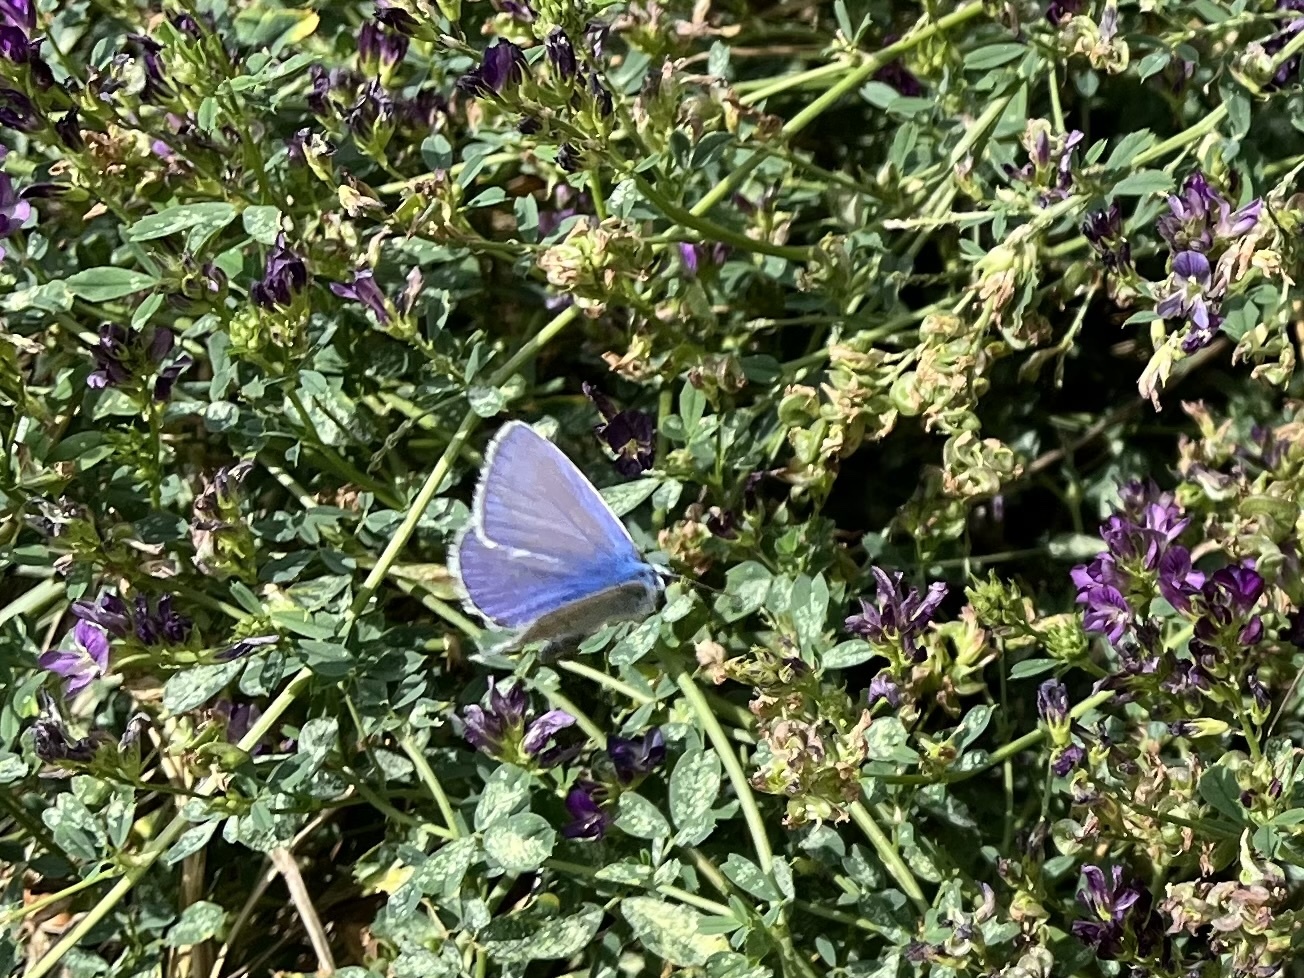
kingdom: Animalia
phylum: Arthropoda
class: Insecta
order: Lepidoptera
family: Lycaenidae
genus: Polyommatus
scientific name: Polyommatus icarus
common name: Common blue
